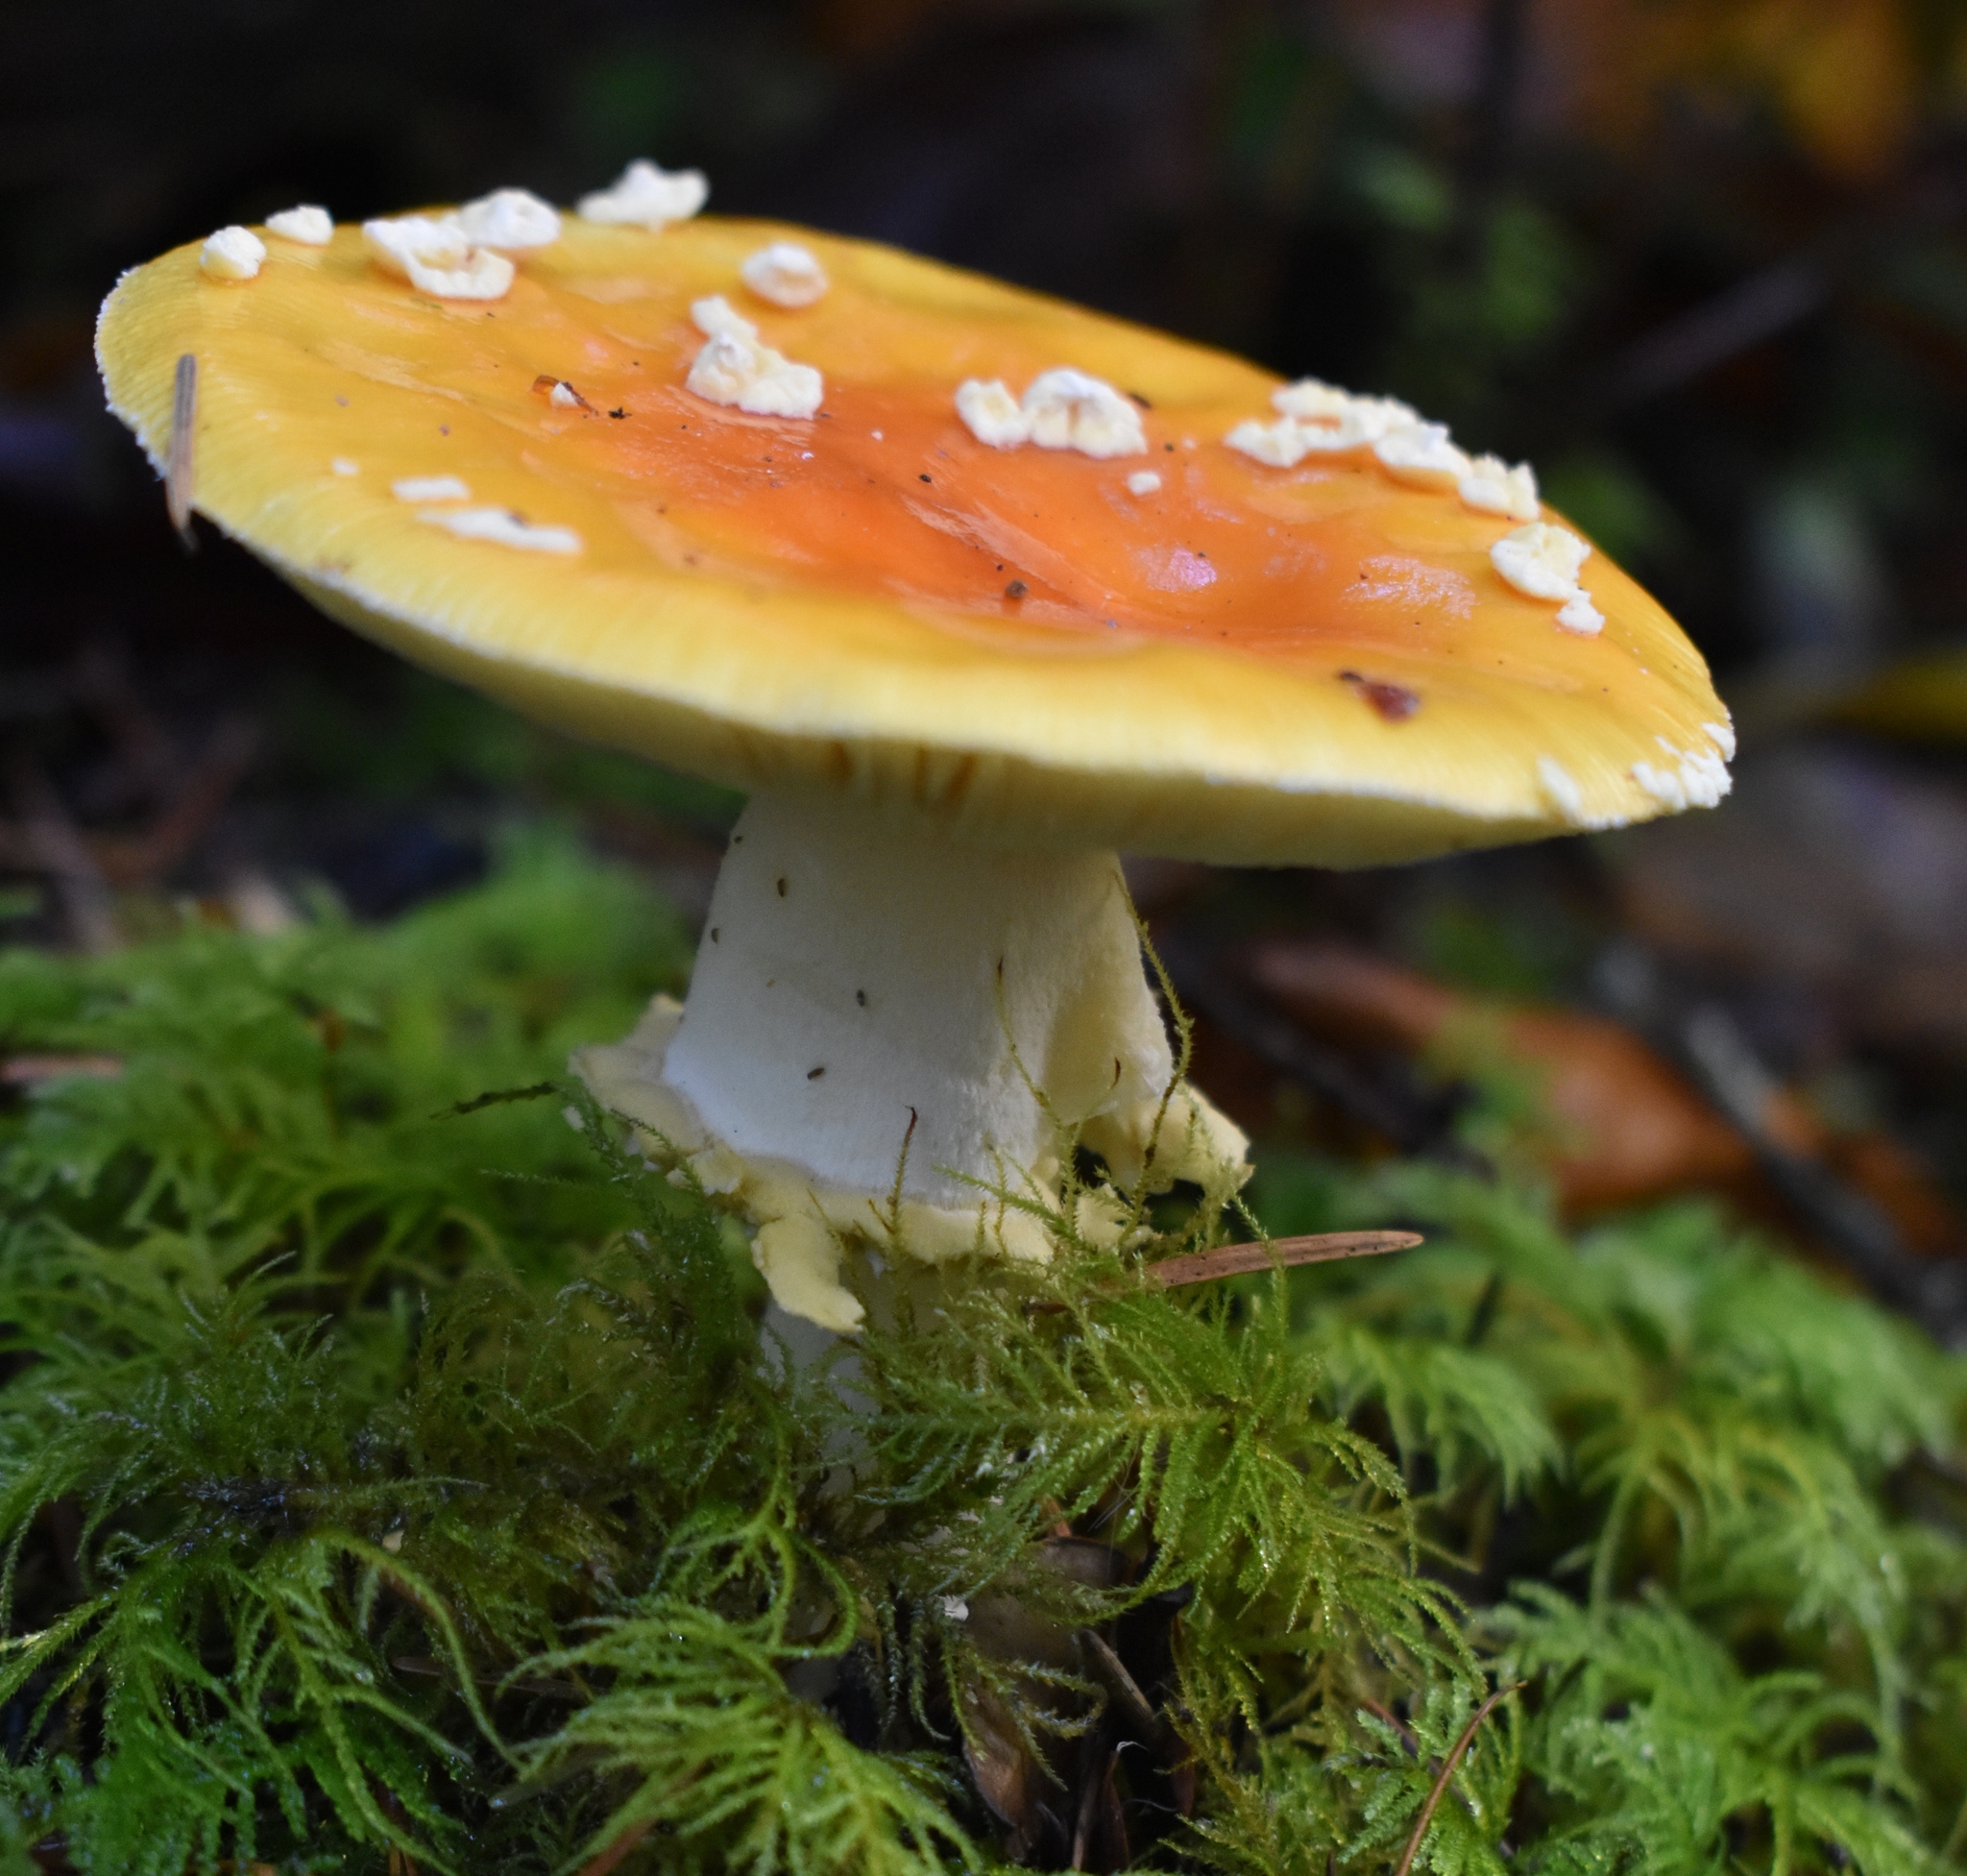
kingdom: Fungi
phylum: Basidiomycota
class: Agaricomycetes
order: Agaricales
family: Amanitaceae
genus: Amanita
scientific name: Amanita muscaria
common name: Fly agaric
